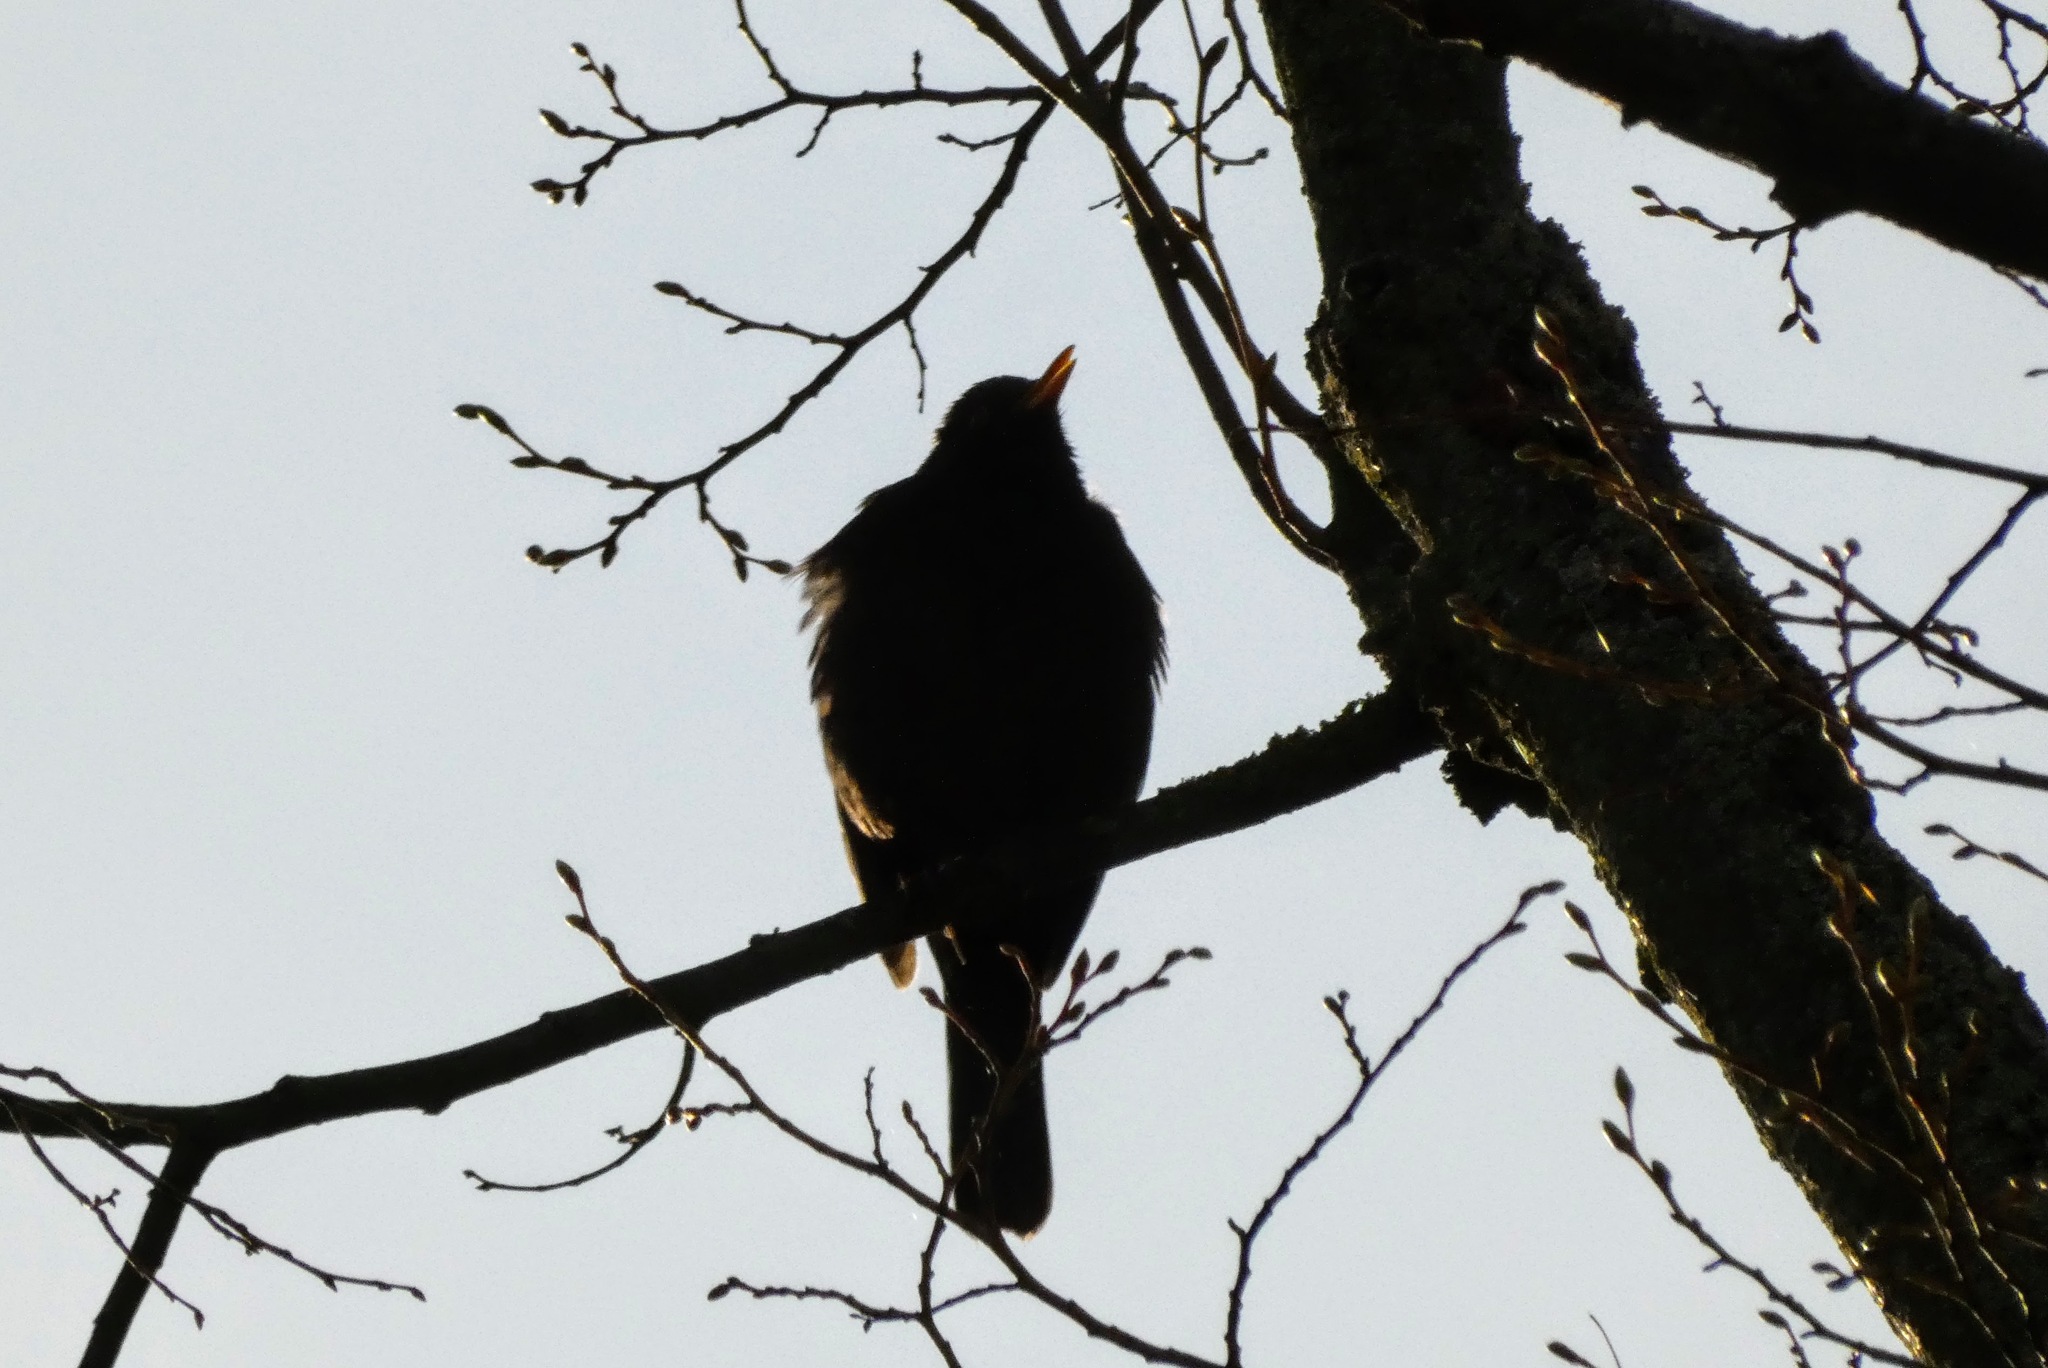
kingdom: Animalia
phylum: Chordata
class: Aves
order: Passeriformes
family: Turdidae
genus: Turdus
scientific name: Turdus merula
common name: Common blackbird
